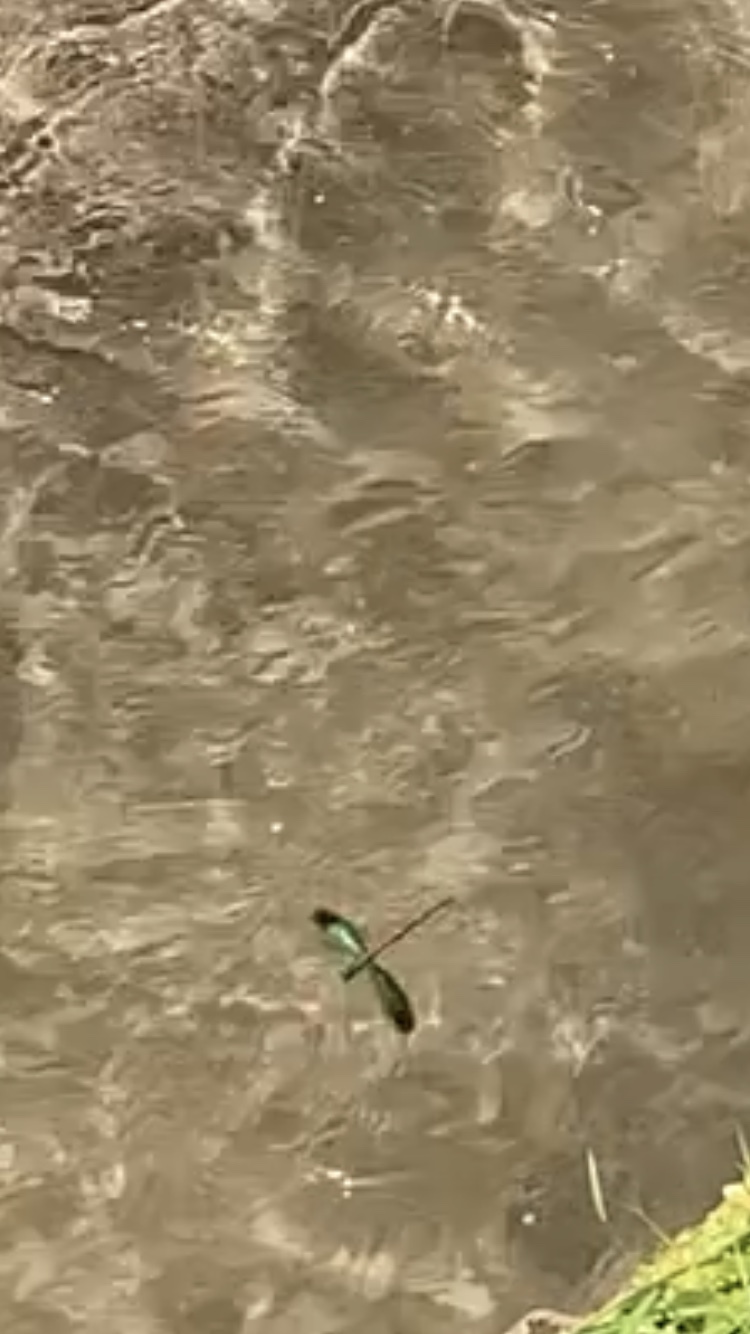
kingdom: Animalia
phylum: Arthropoda
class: Insecta
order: Odonata
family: Calopterygidae
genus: Neurobasis
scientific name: Neurobasis chinensis
